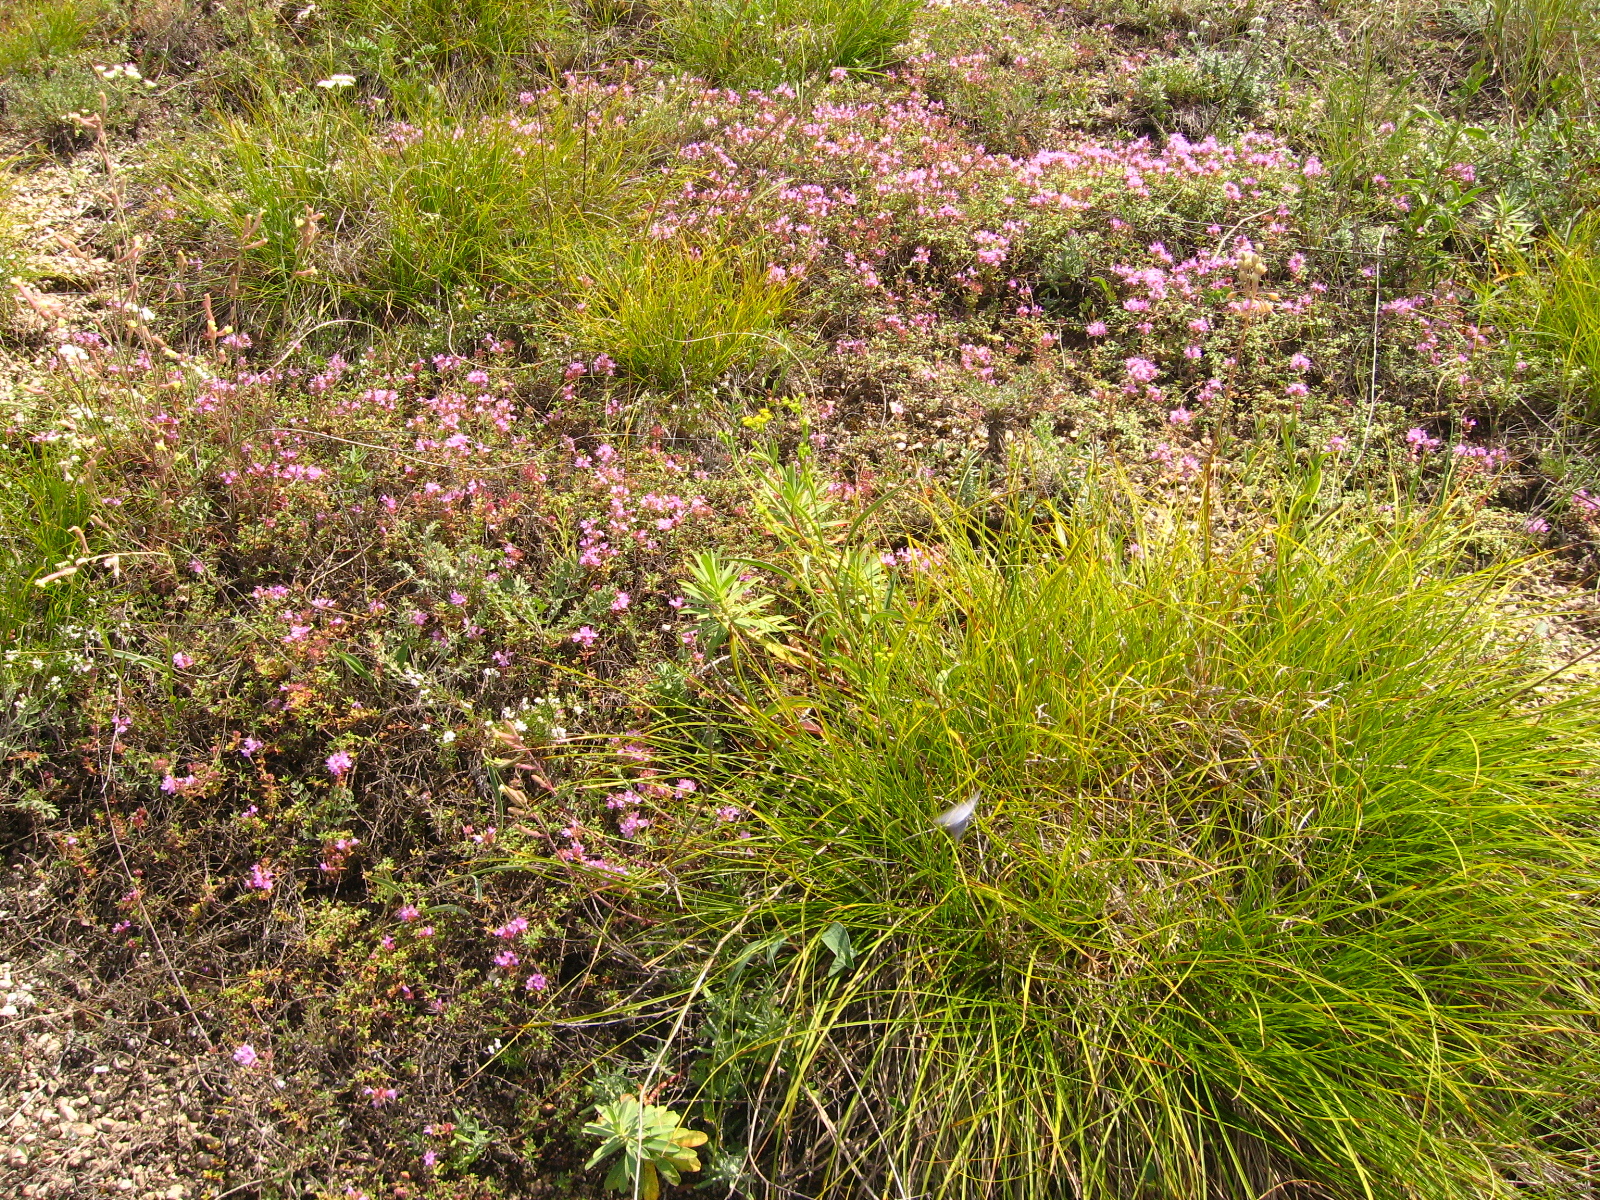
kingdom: Plantae
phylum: Tracheophyta
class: Liliopsida
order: Poales
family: Cyperaceae
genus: Carex
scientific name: Carex humilis
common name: Dwarf sedge
